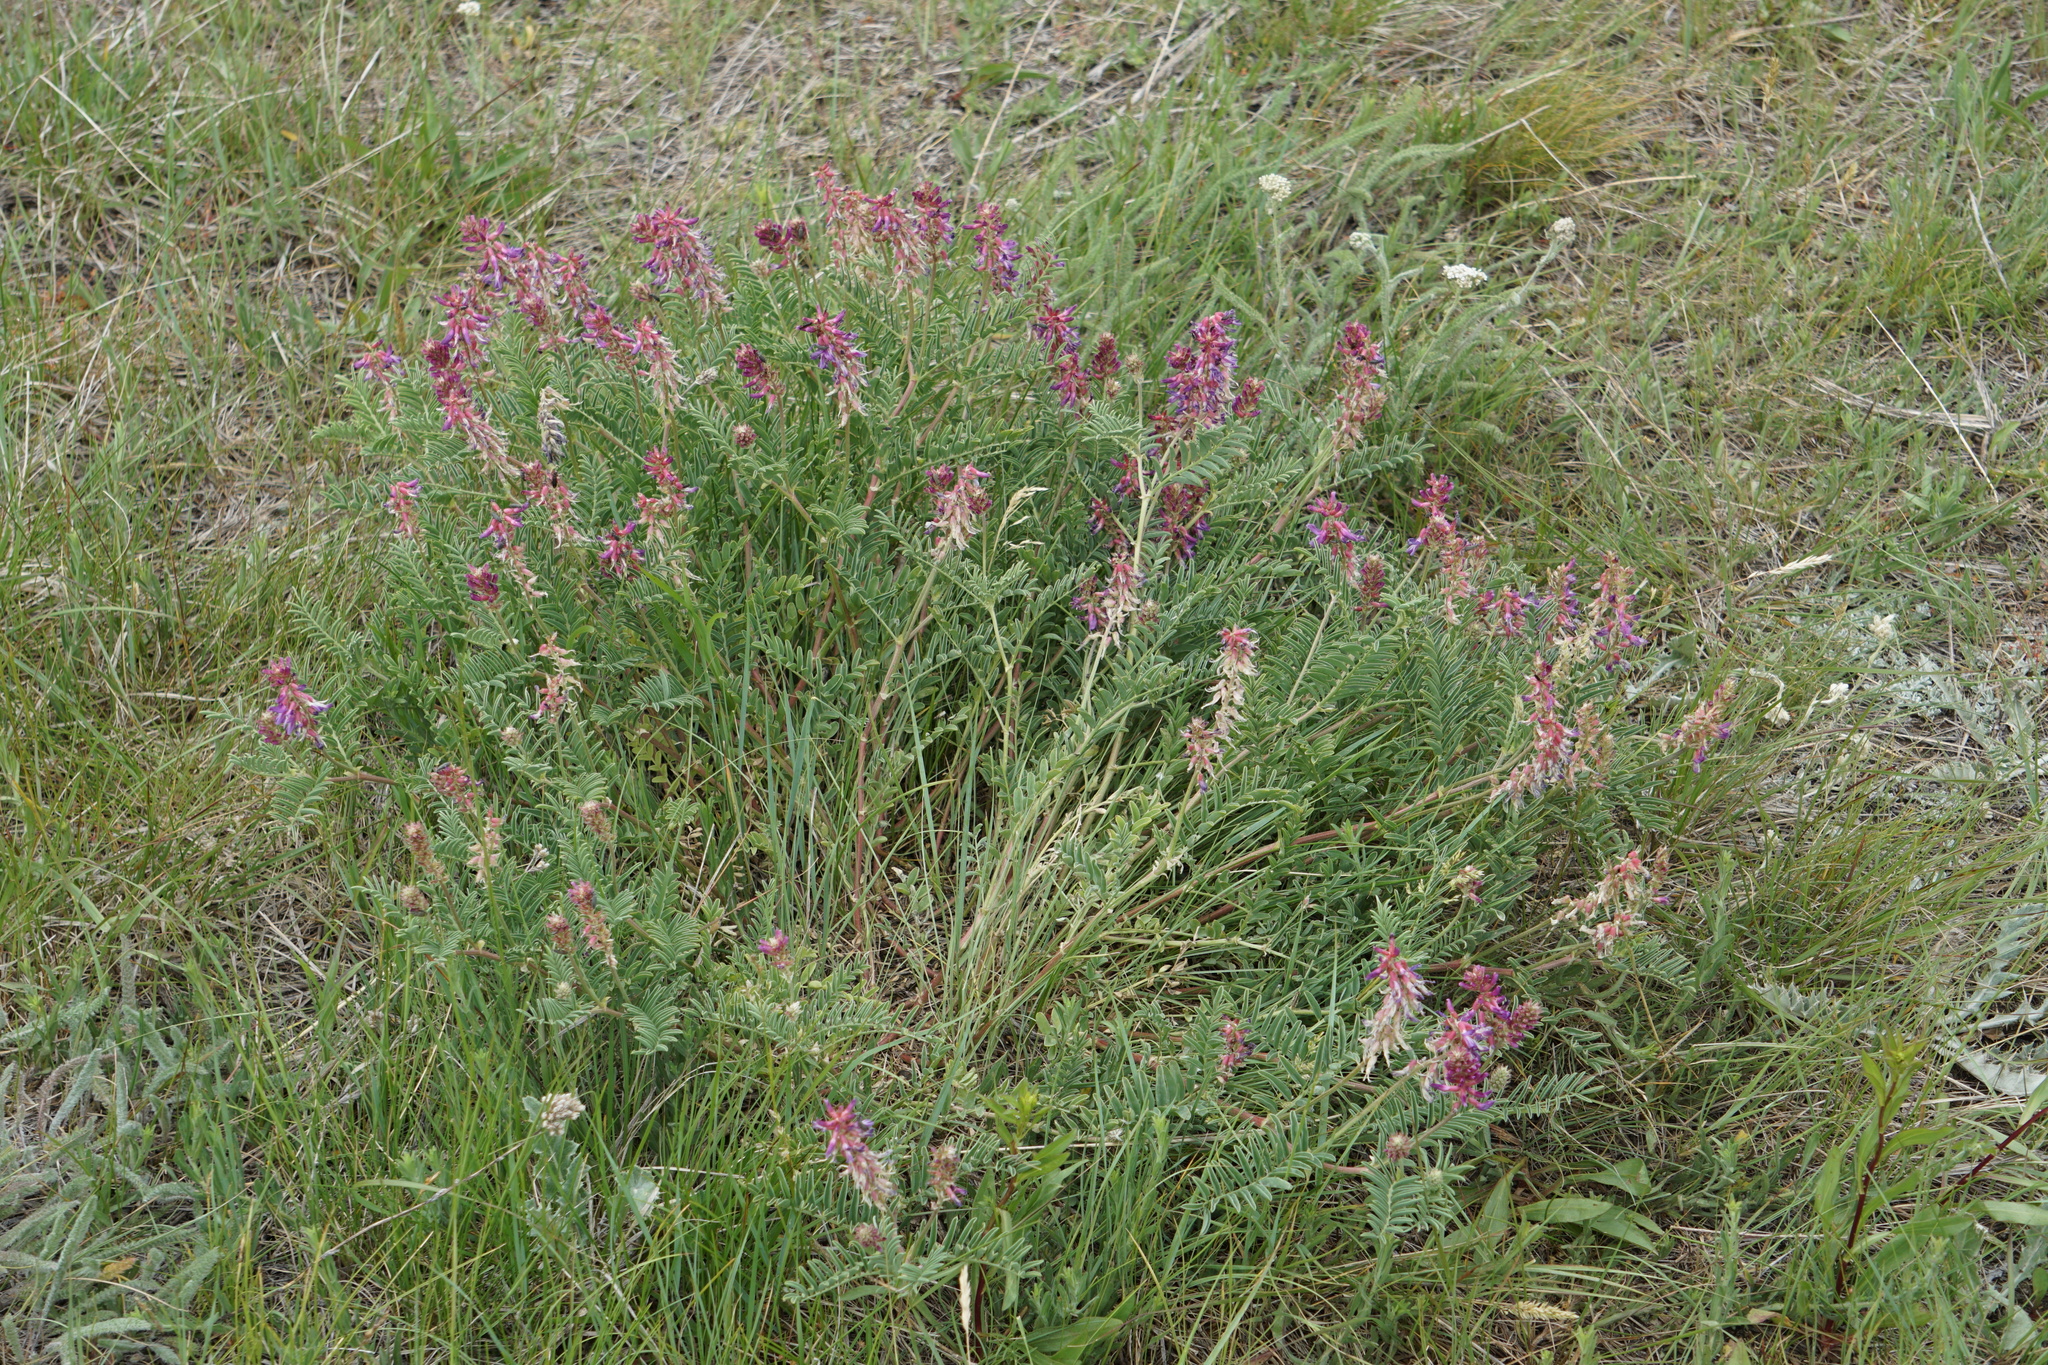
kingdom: Plantae
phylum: Tracheophyta
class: Magnoliopsida
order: Fabales
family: Fabaceae
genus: Astragalus
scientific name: Astragalus bisulcatus
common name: Two-groove milk-vetch
